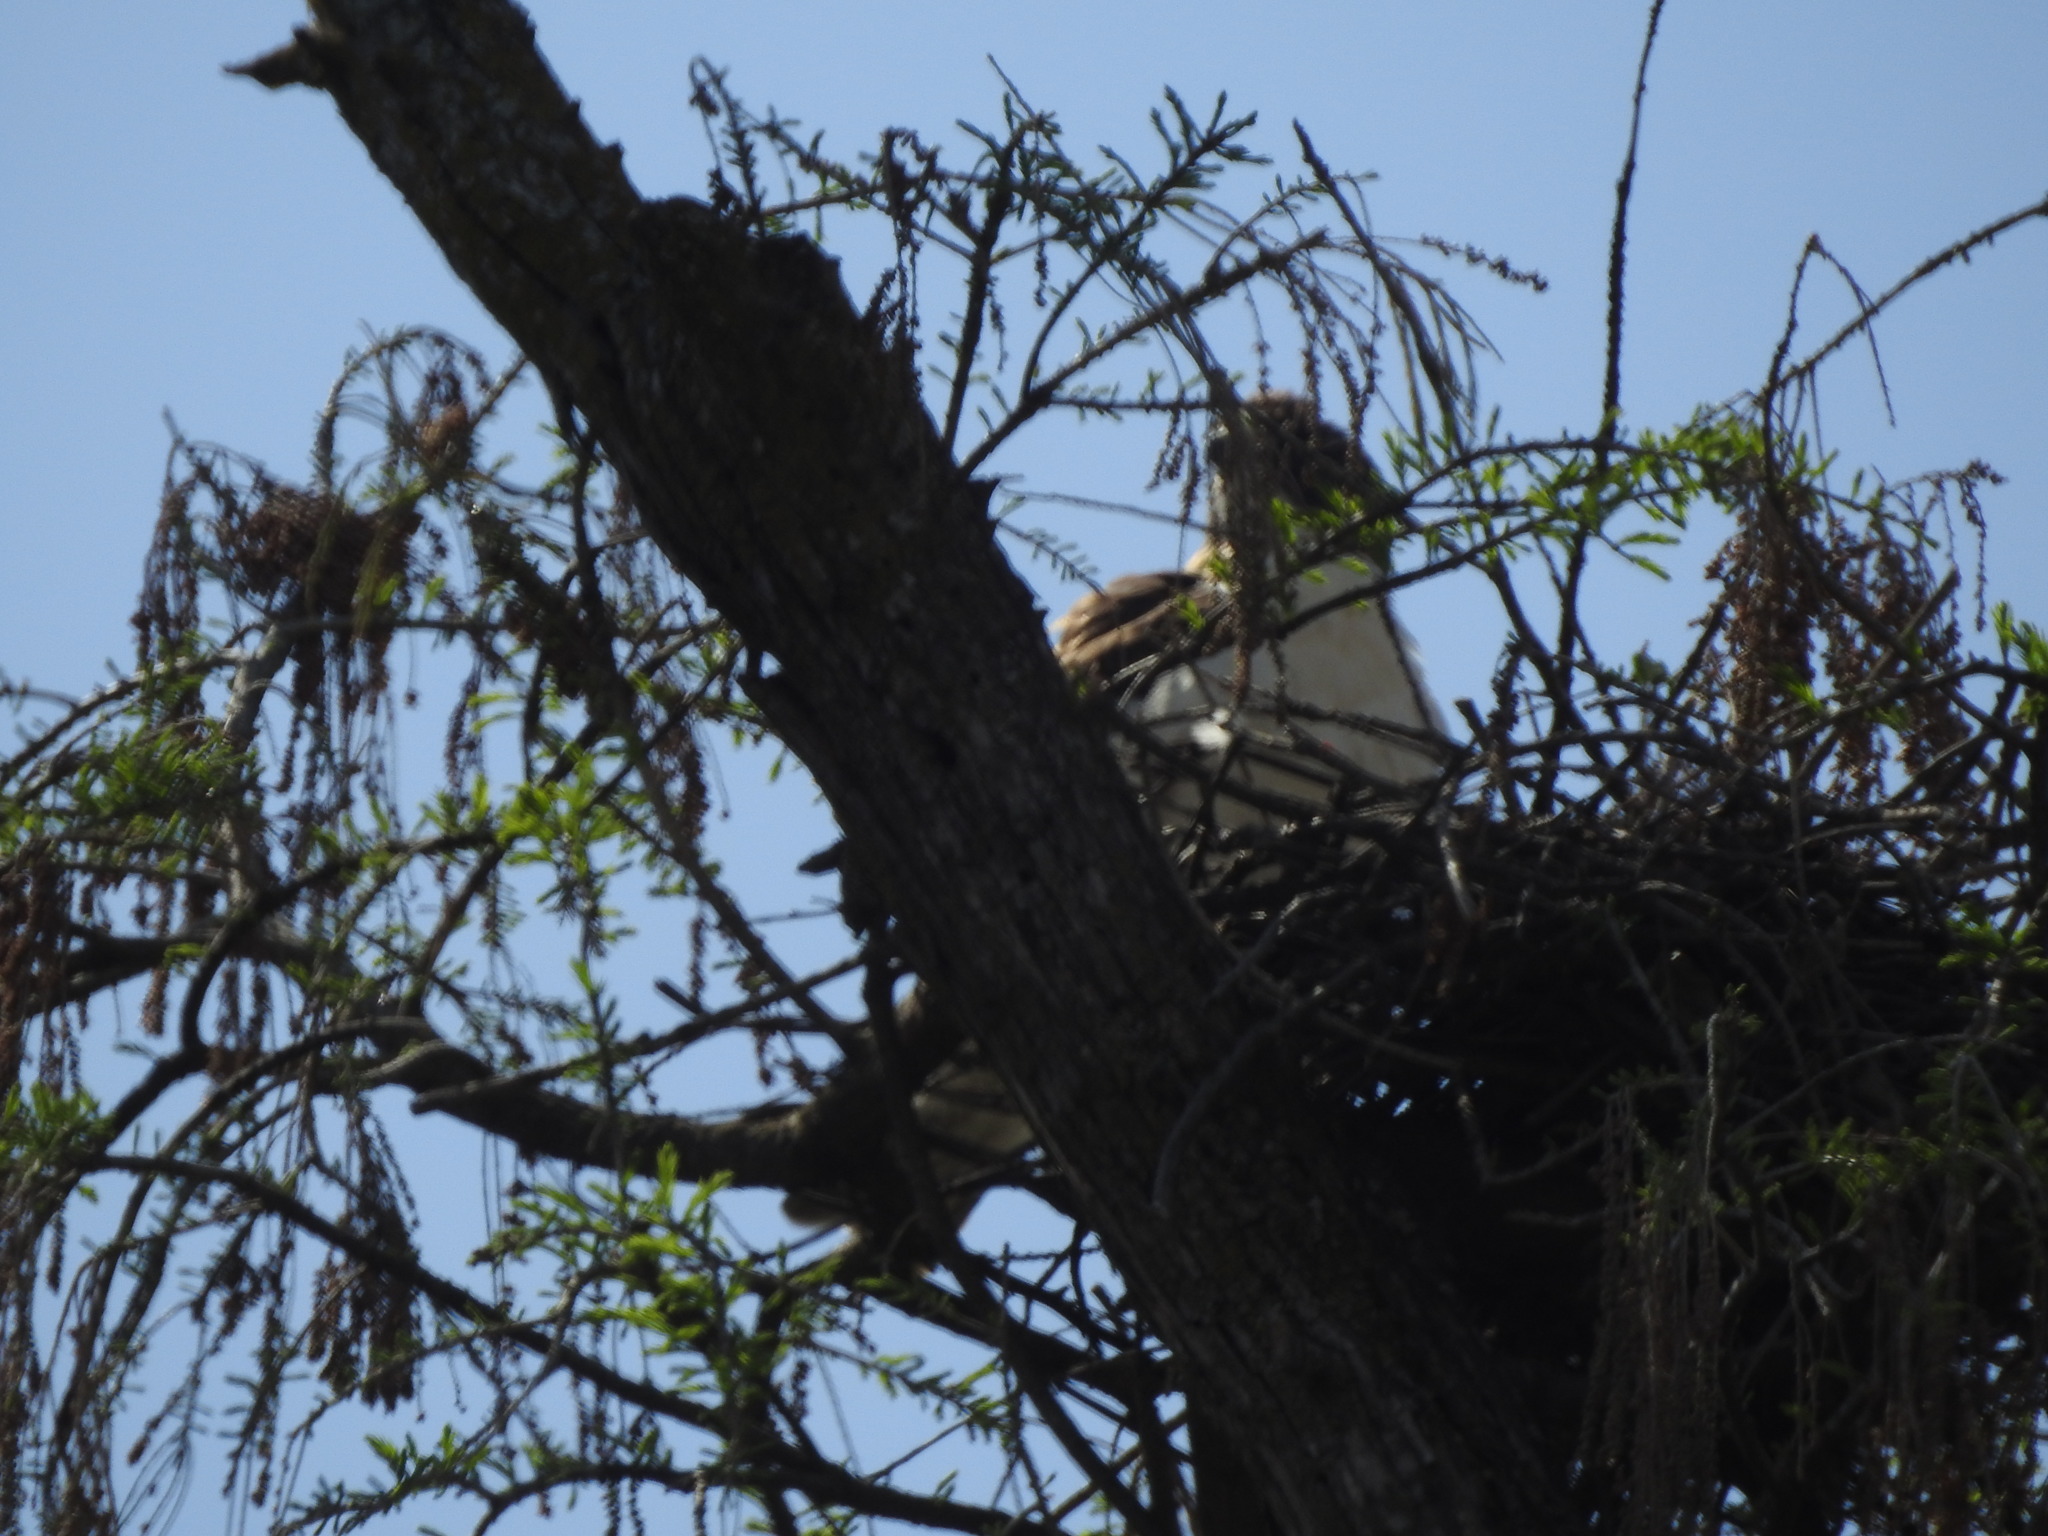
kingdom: Animalia
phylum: Chordata
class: Aves
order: Accipitriformes
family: Accipitridae
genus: Buteo
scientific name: Buteo brachyurus
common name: Short-tailed hawk
